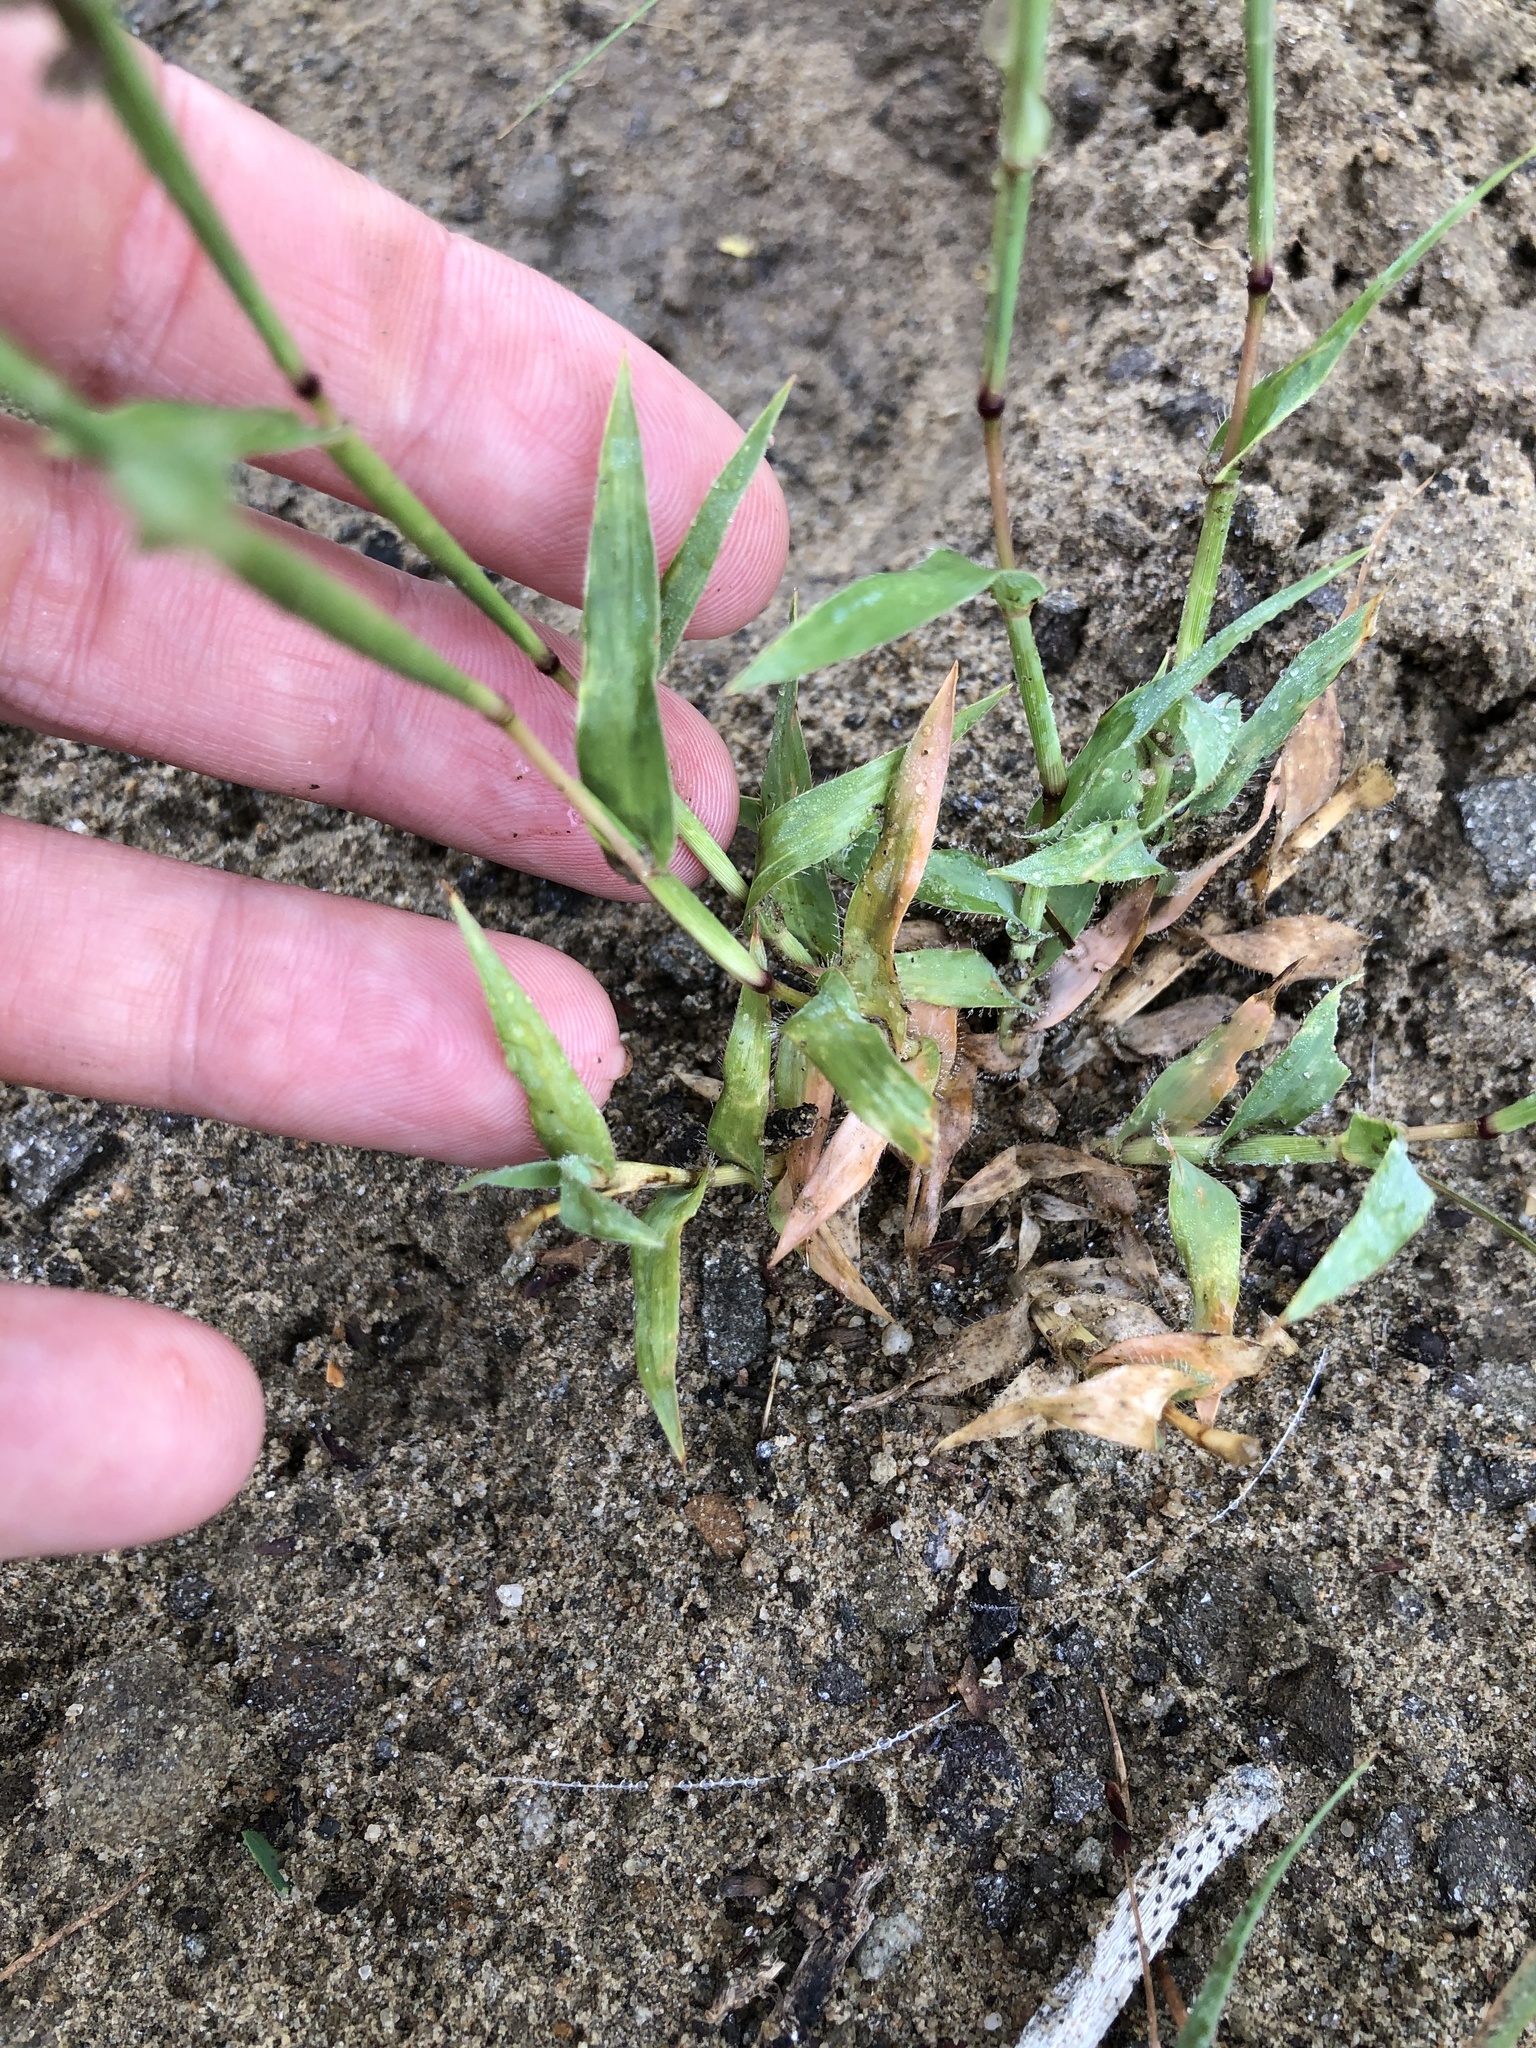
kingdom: Plantae
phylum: Tracheophyta
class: Liliopsida
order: Poales
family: Poaceae
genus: Tragus
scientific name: Tragus berteronianus
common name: African bur-grass
